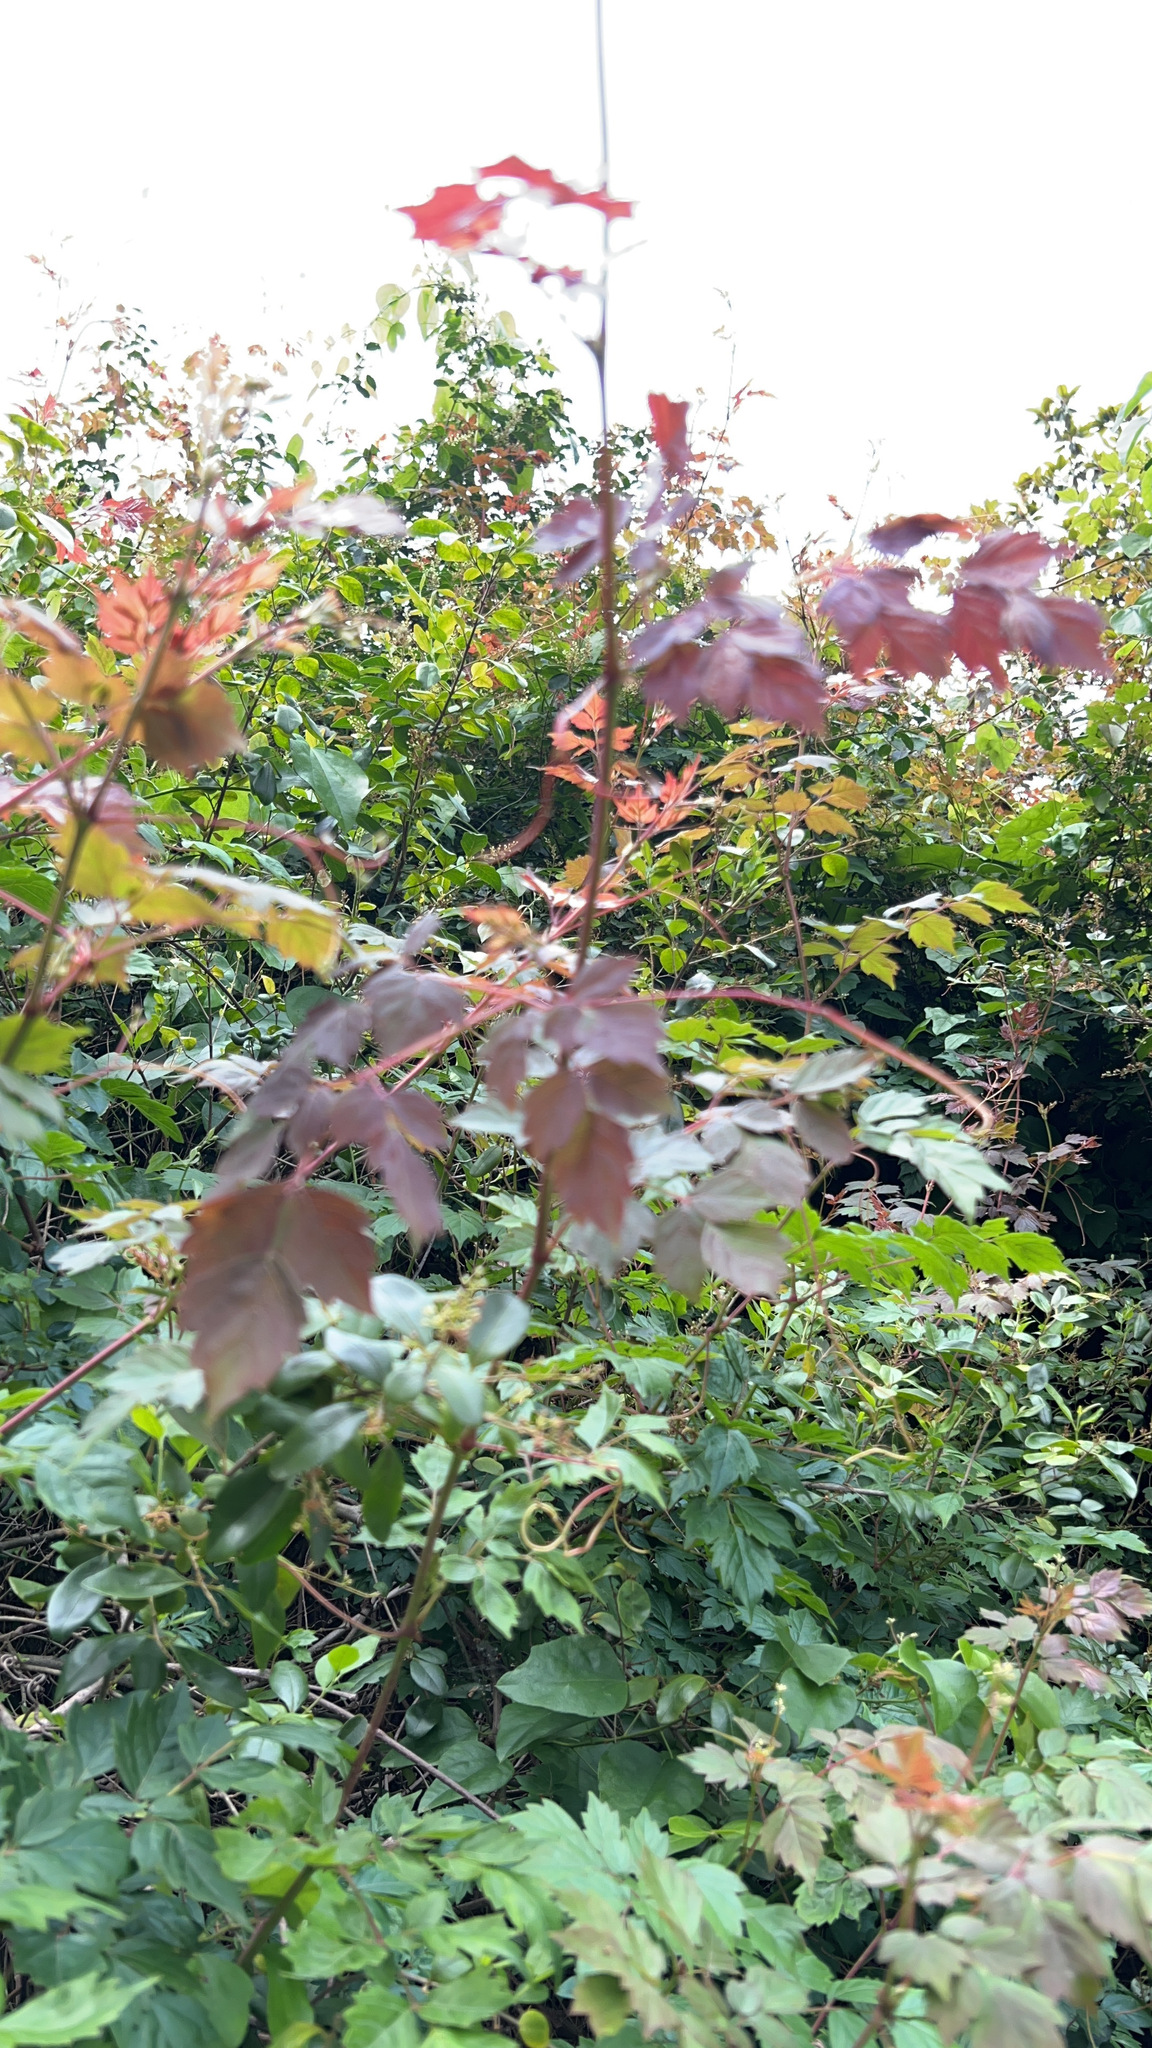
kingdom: Plantae
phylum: Tracheophyta
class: Magnoliopsida
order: Vitales
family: Vitaceae
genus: Nekemias
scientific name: Nekemias arborea
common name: Peppervine
